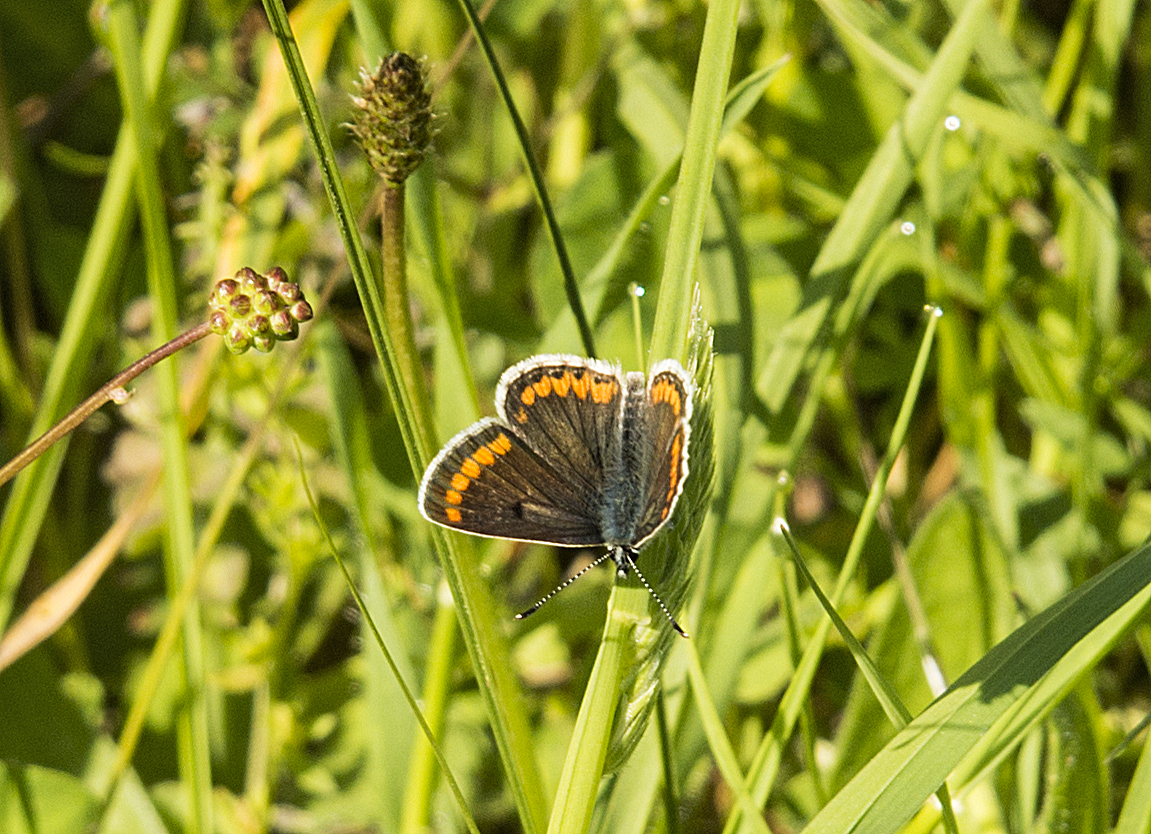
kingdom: Animalia
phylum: Arthropoda
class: Insecta
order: Lepidoptera
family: Lycaenidae
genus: Aricia
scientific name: Aricia agestis
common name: Brown argus
